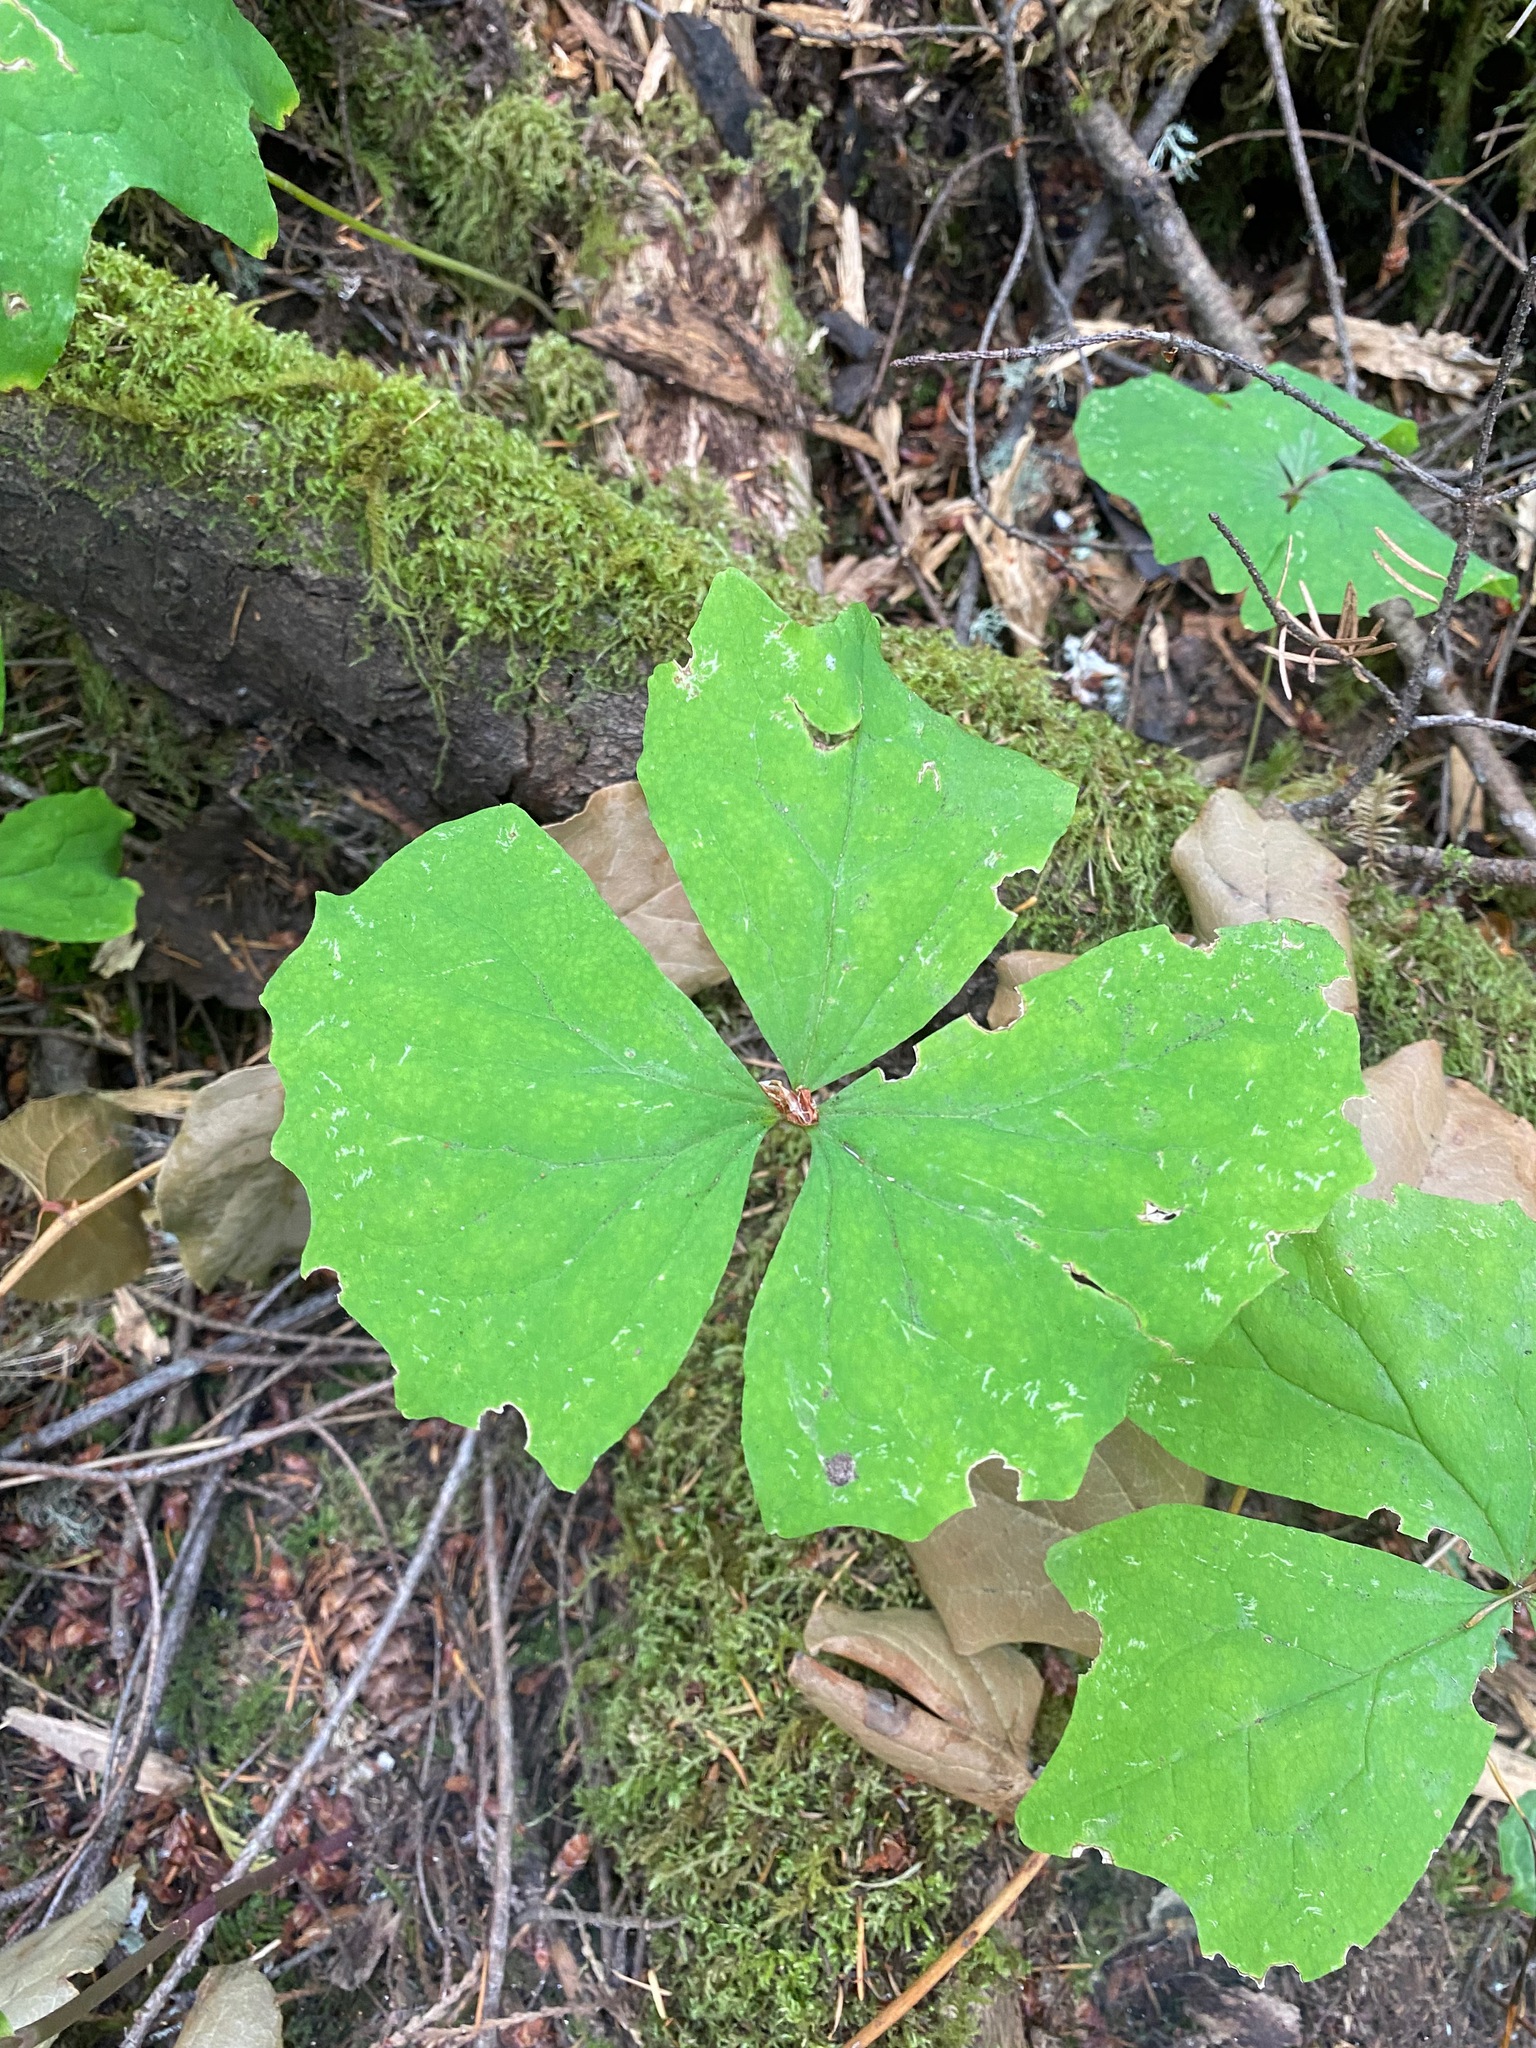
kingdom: Plantae
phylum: Tracheophyta
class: Magnoliopsida
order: Ranunculales
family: Berberidaceae
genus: Achlys
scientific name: Achlys triphylla
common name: Vanilla-leaf
